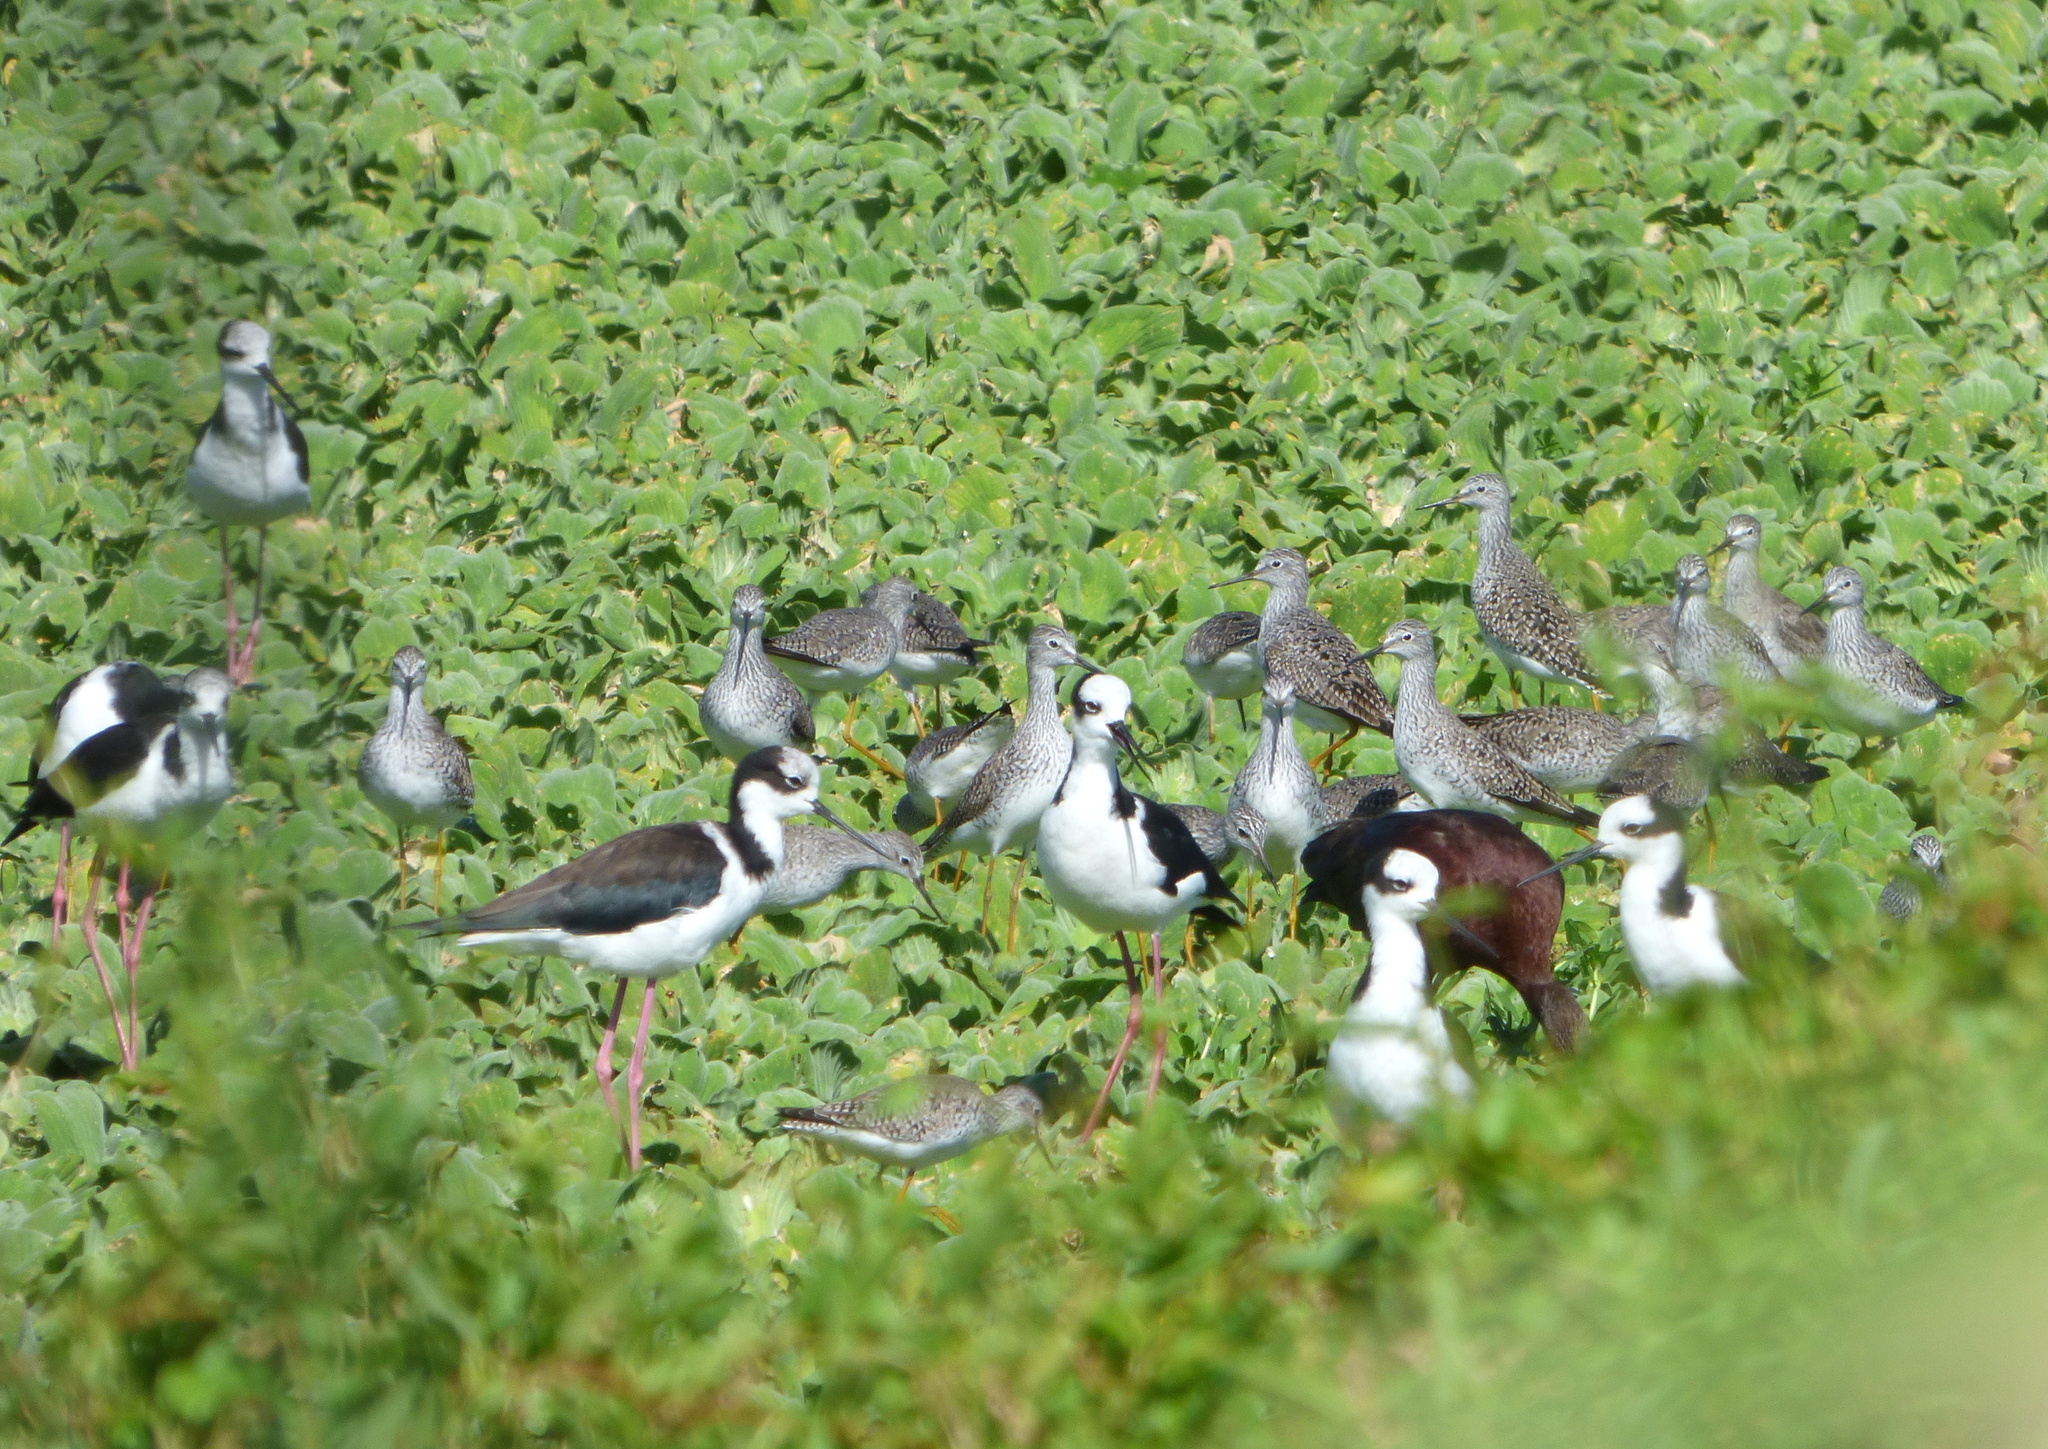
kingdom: Animalia
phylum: Chordata
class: Aves
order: Charadriiformes
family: Scolopacidae
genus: Tringa
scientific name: Tringa flavipes
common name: Lesser yellowlegs
